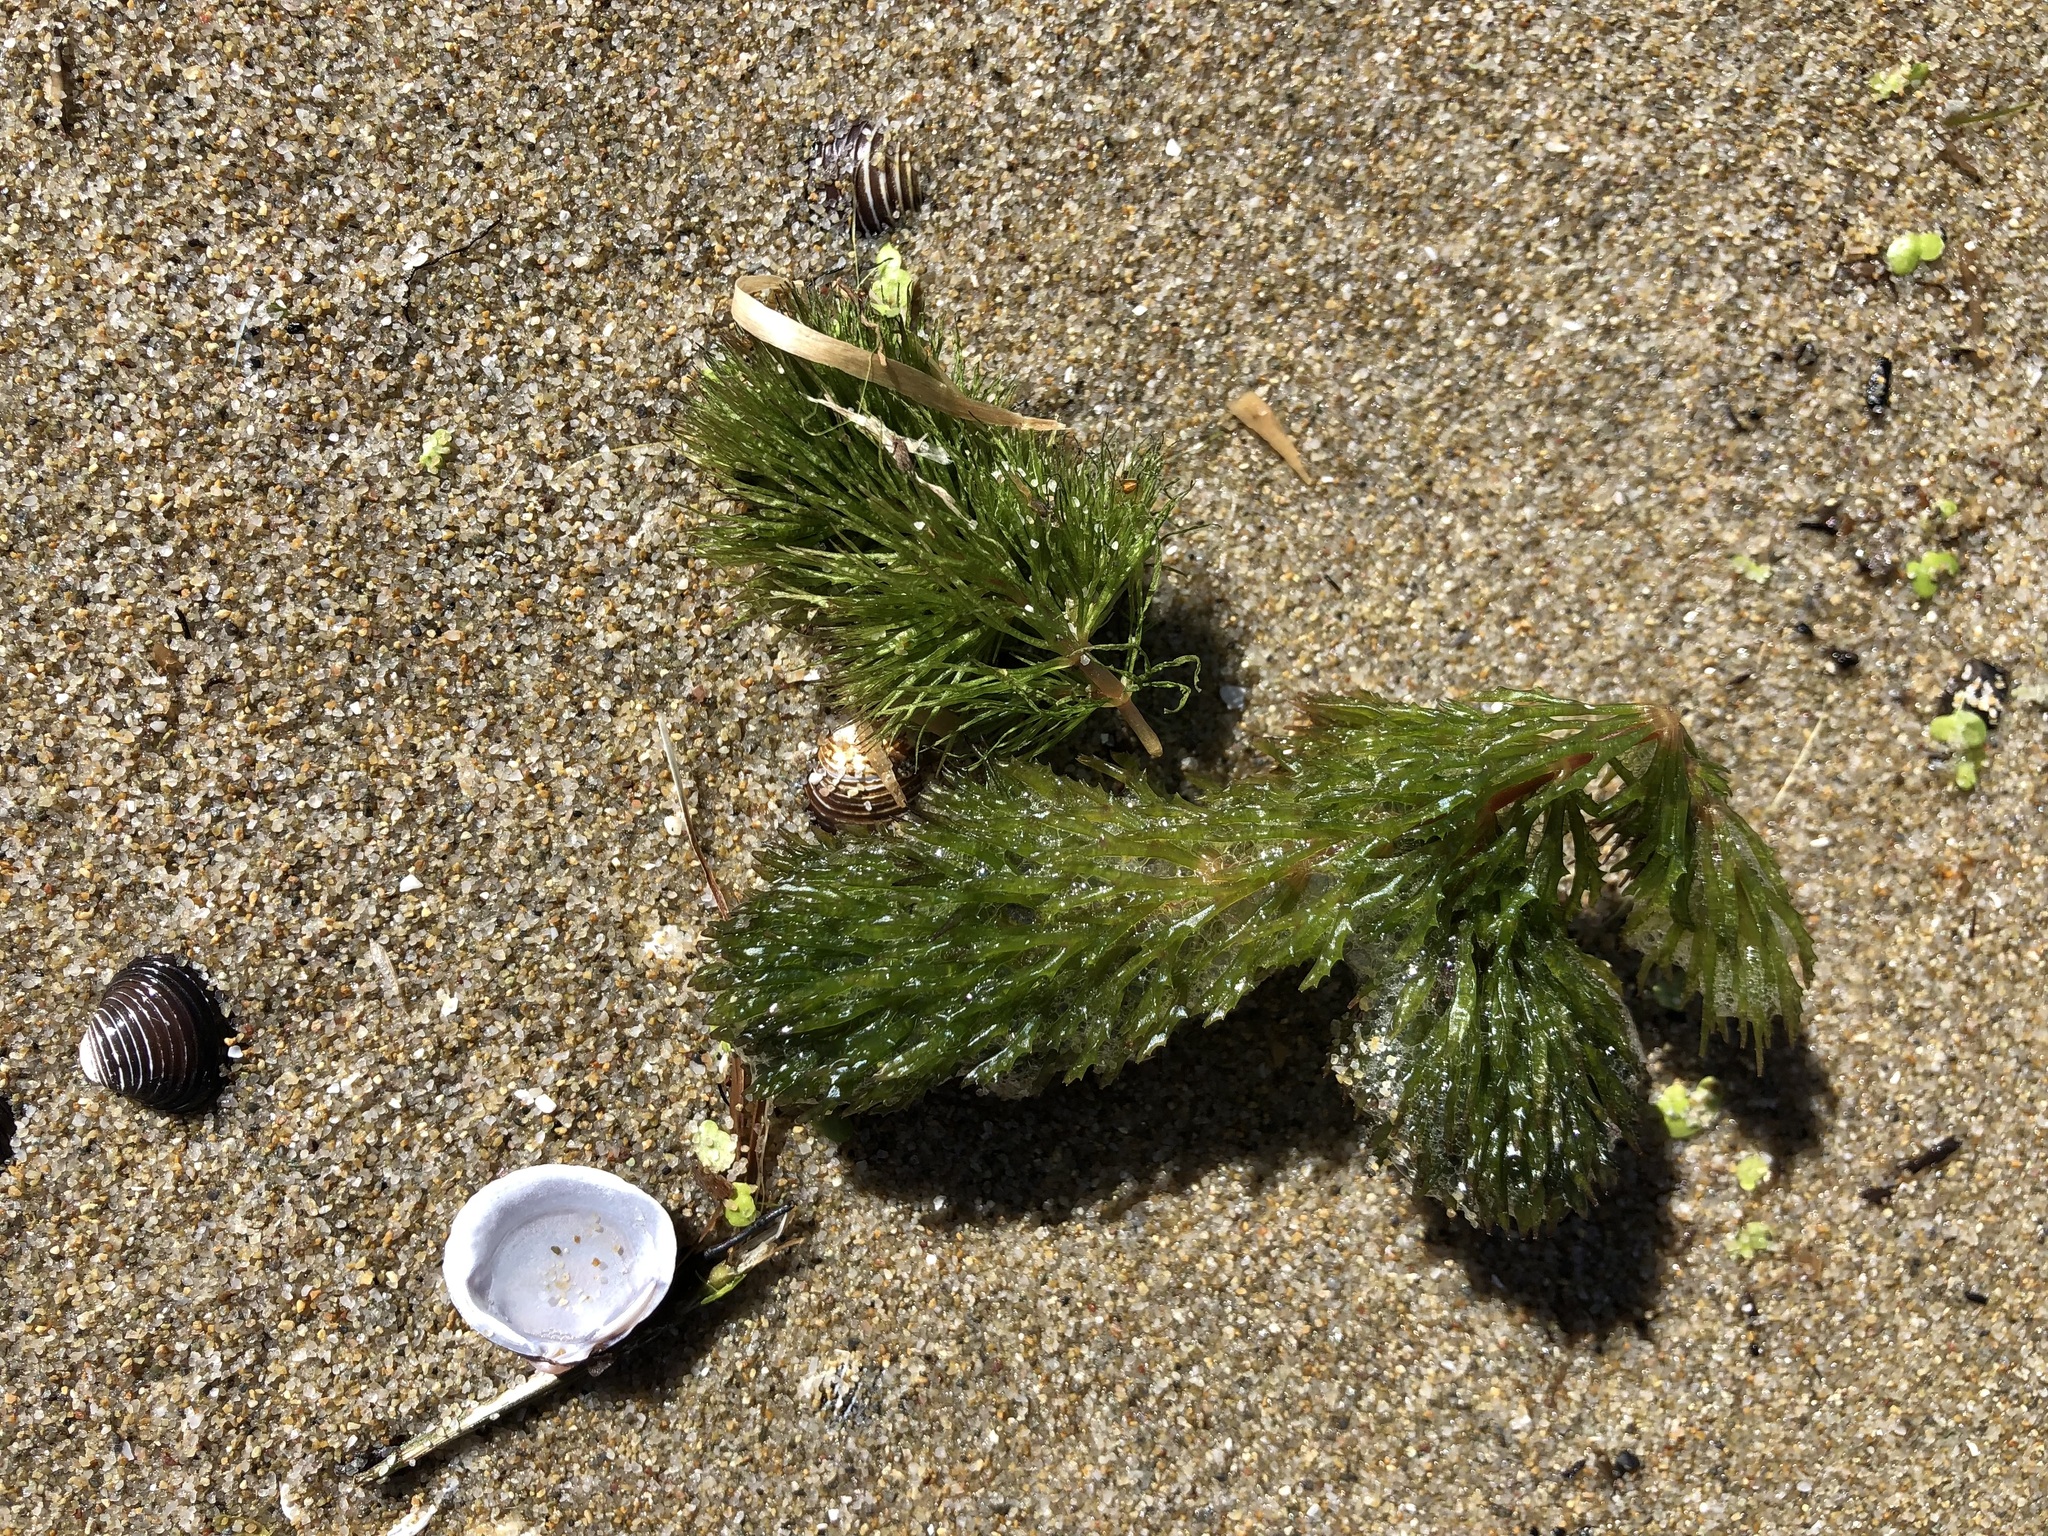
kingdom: Plantae
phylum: Tracheophyta
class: Magnoliopsida
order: Ceratophyllales
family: Ceratophyllaceae
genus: Ceratophyllum
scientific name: Ceratophyllum demersum
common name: Rigid hornwort
